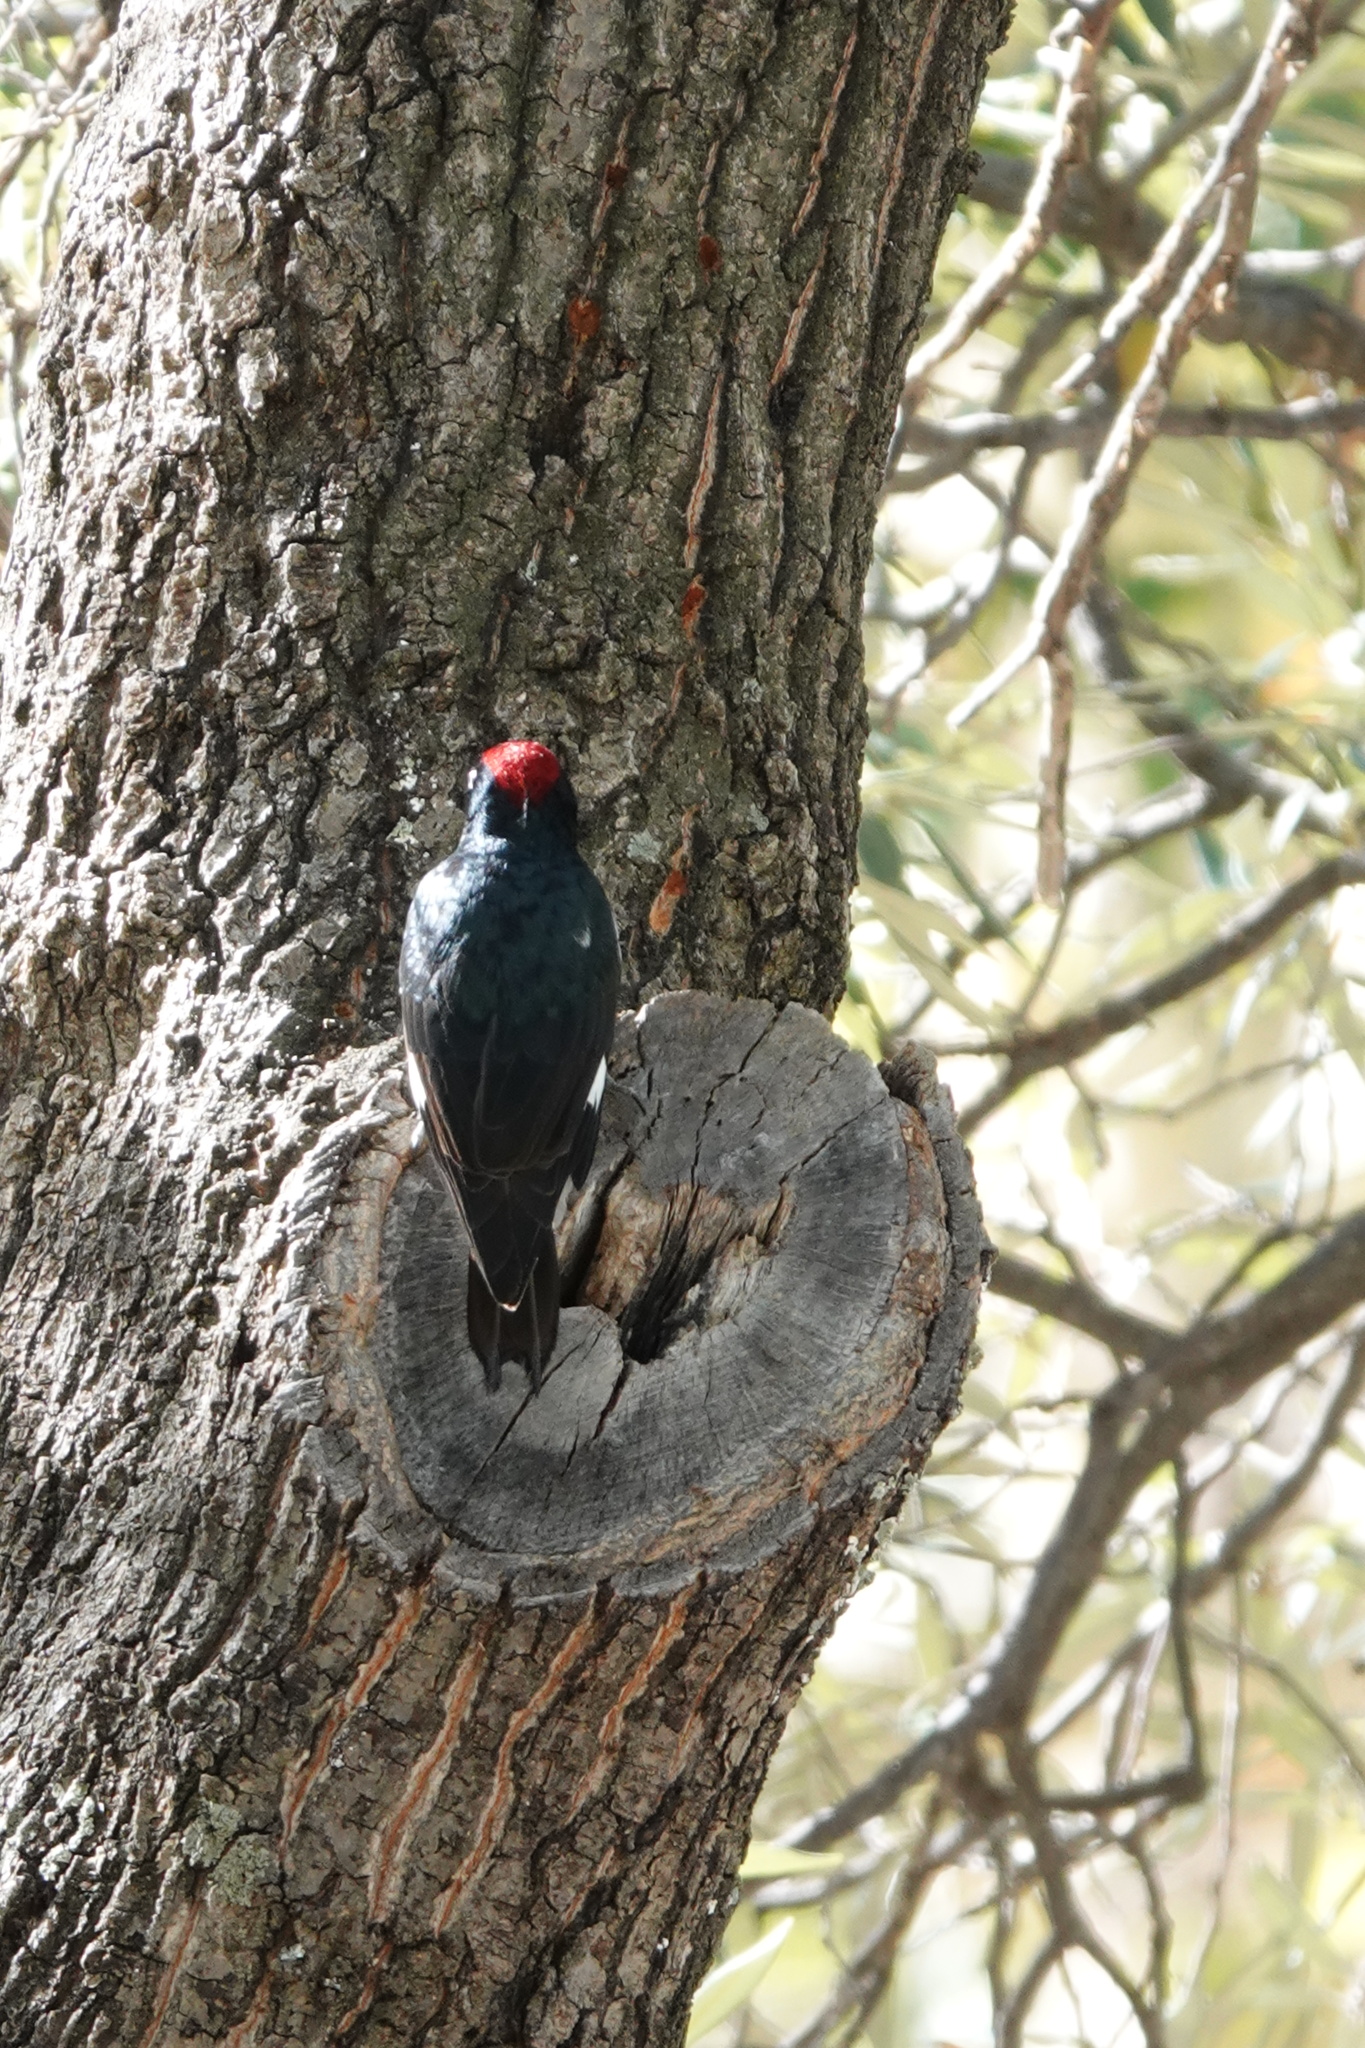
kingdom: Animalia
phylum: Chordata
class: Aves
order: Piciformes
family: Picidae
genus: Melanerpes
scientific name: Melanerpes formicivorus
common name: Acorn woodpecker
